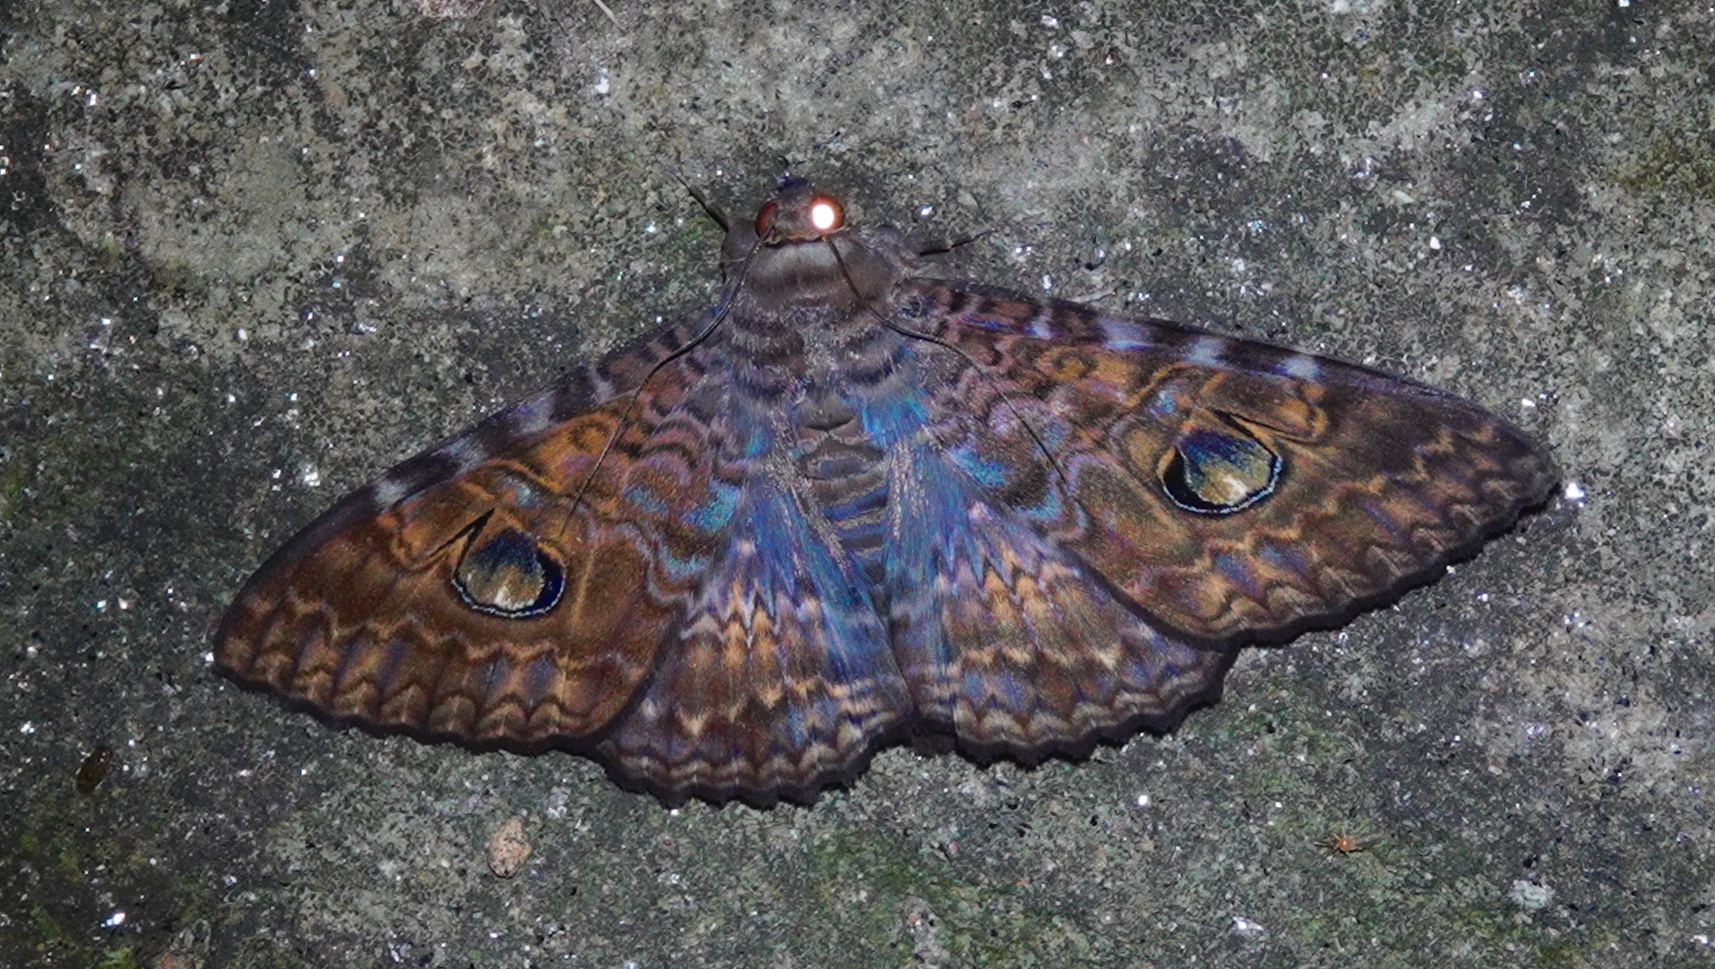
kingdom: Animalia
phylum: Arthropoda
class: Insecta
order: Lepidoptera
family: Erebidae
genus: Speiredonia
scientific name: Speiredonia obscura
